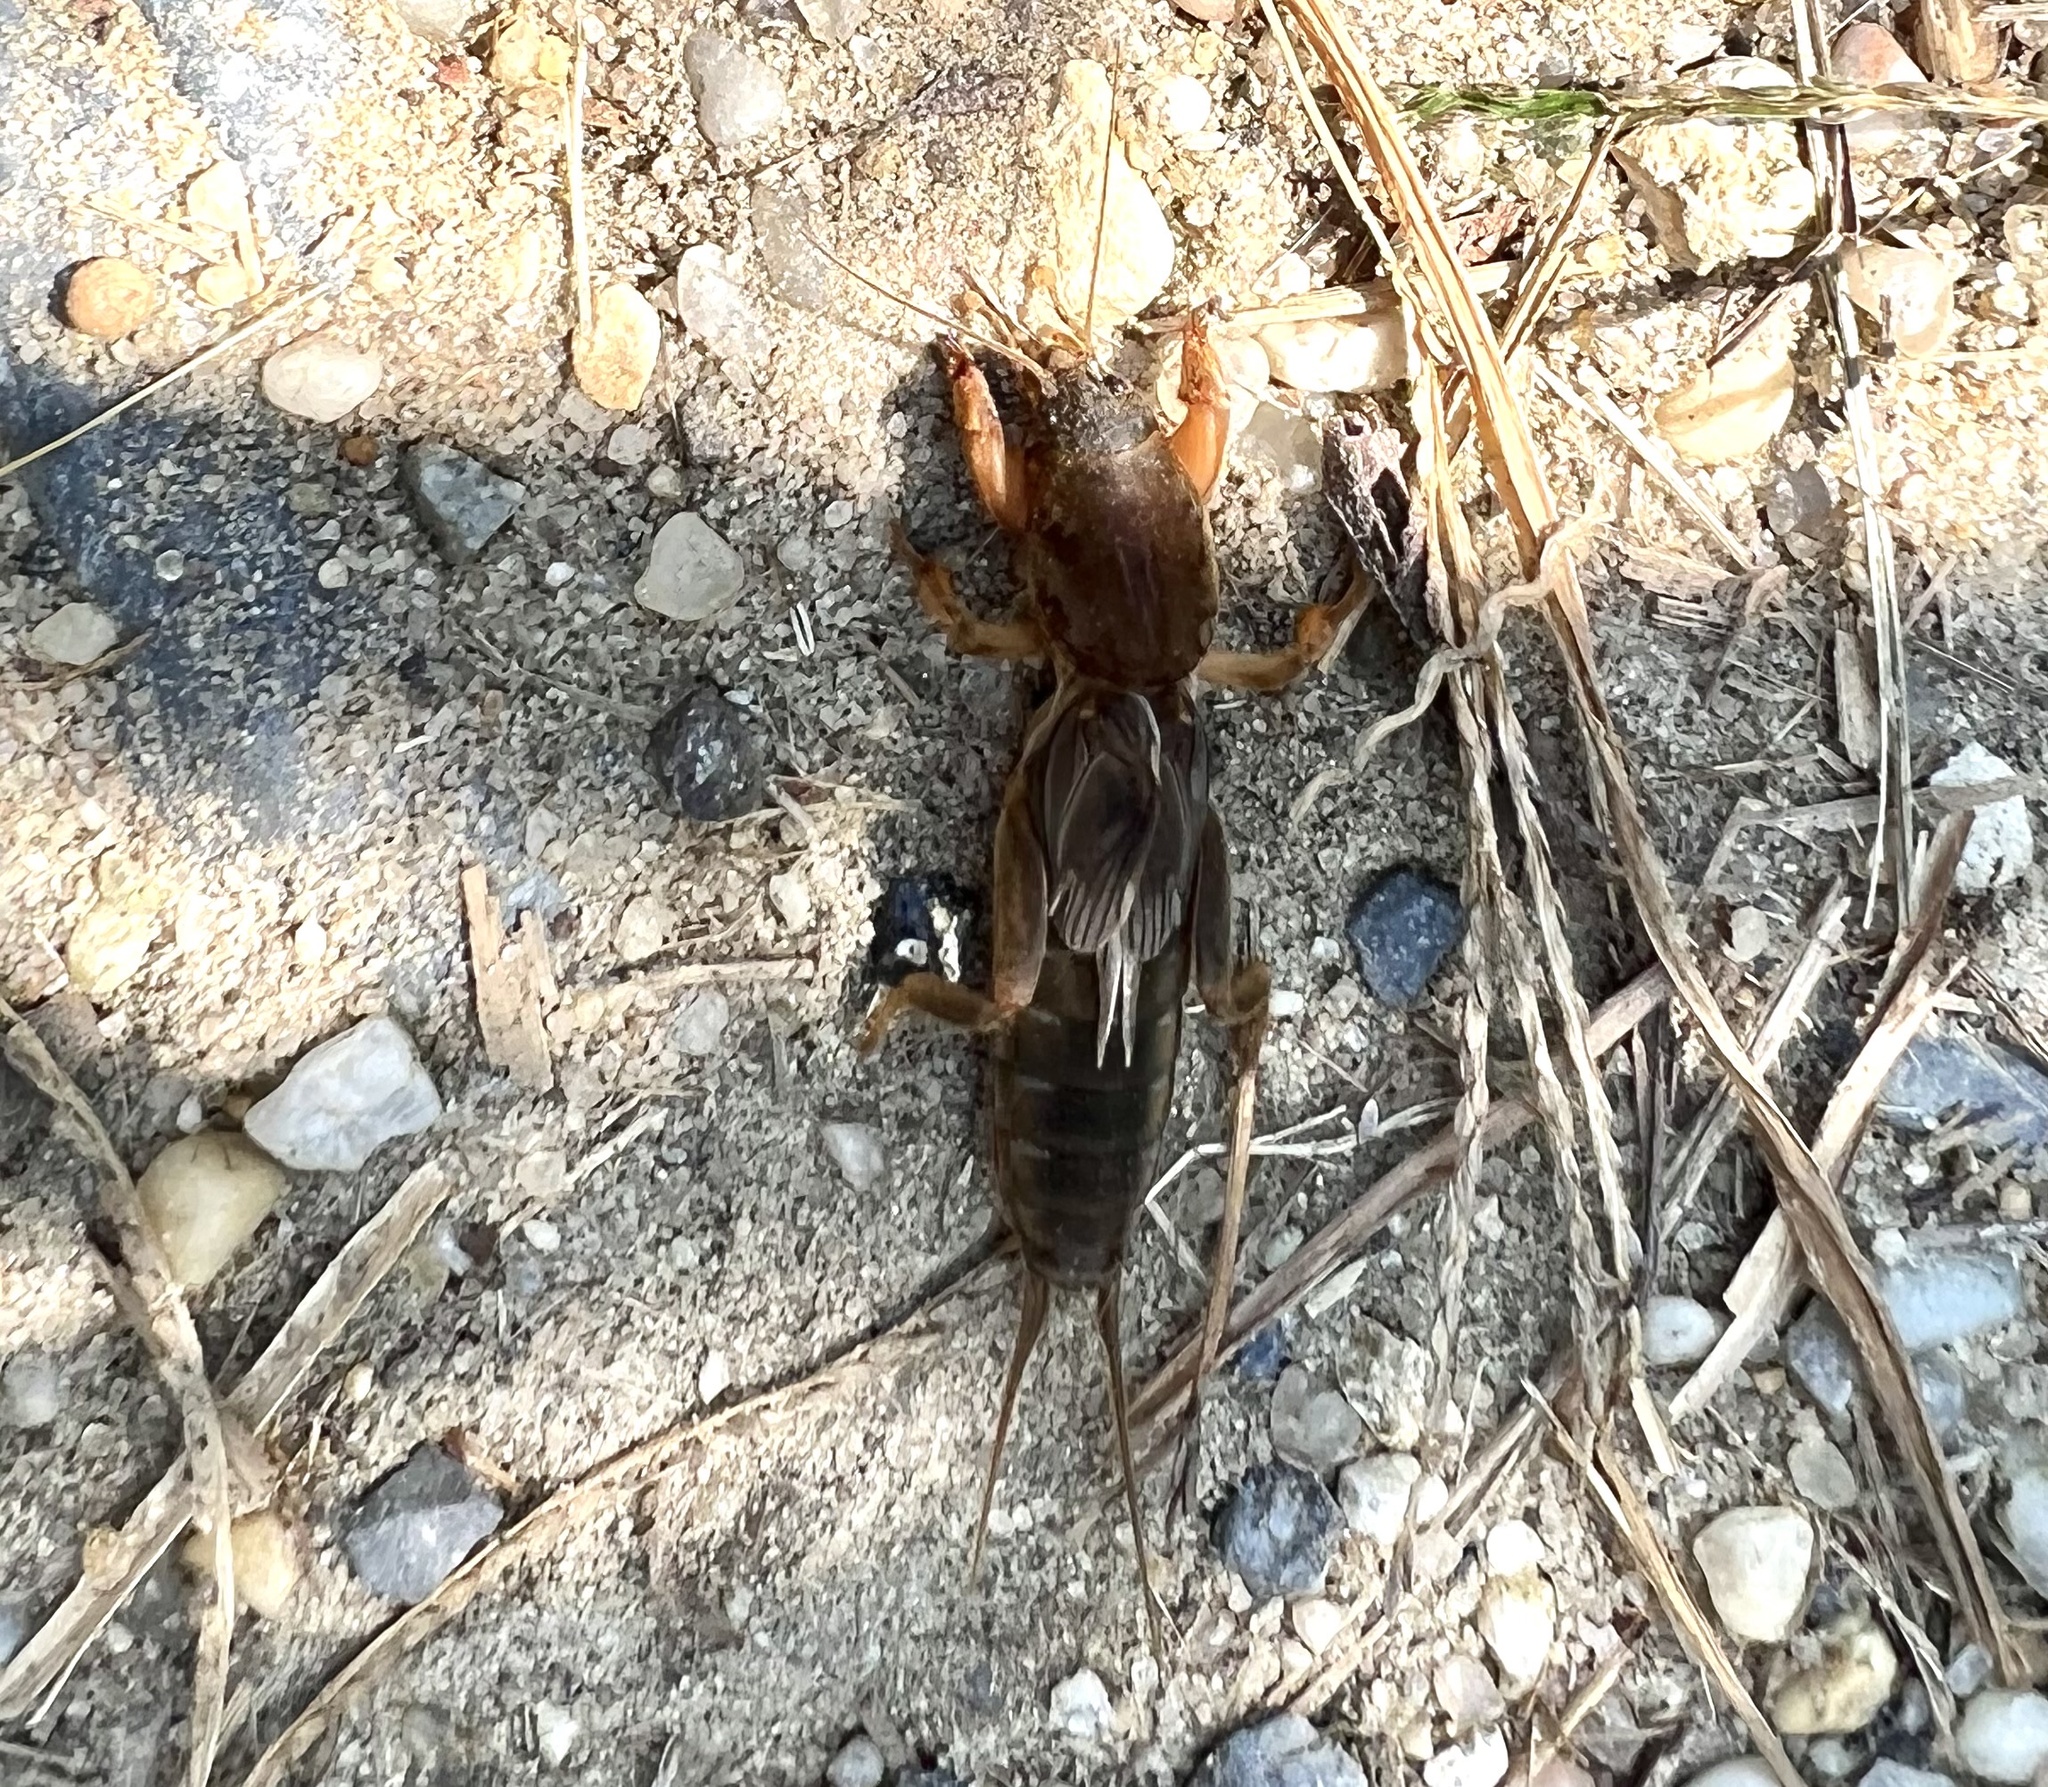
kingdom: Animalia
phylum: Arthropoda
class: Insecta
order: Orthoptera
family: Gryllotalpidae
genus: Neocurtilla
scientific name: Neocurtilla hexadactyla
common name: Northern mole cricket
